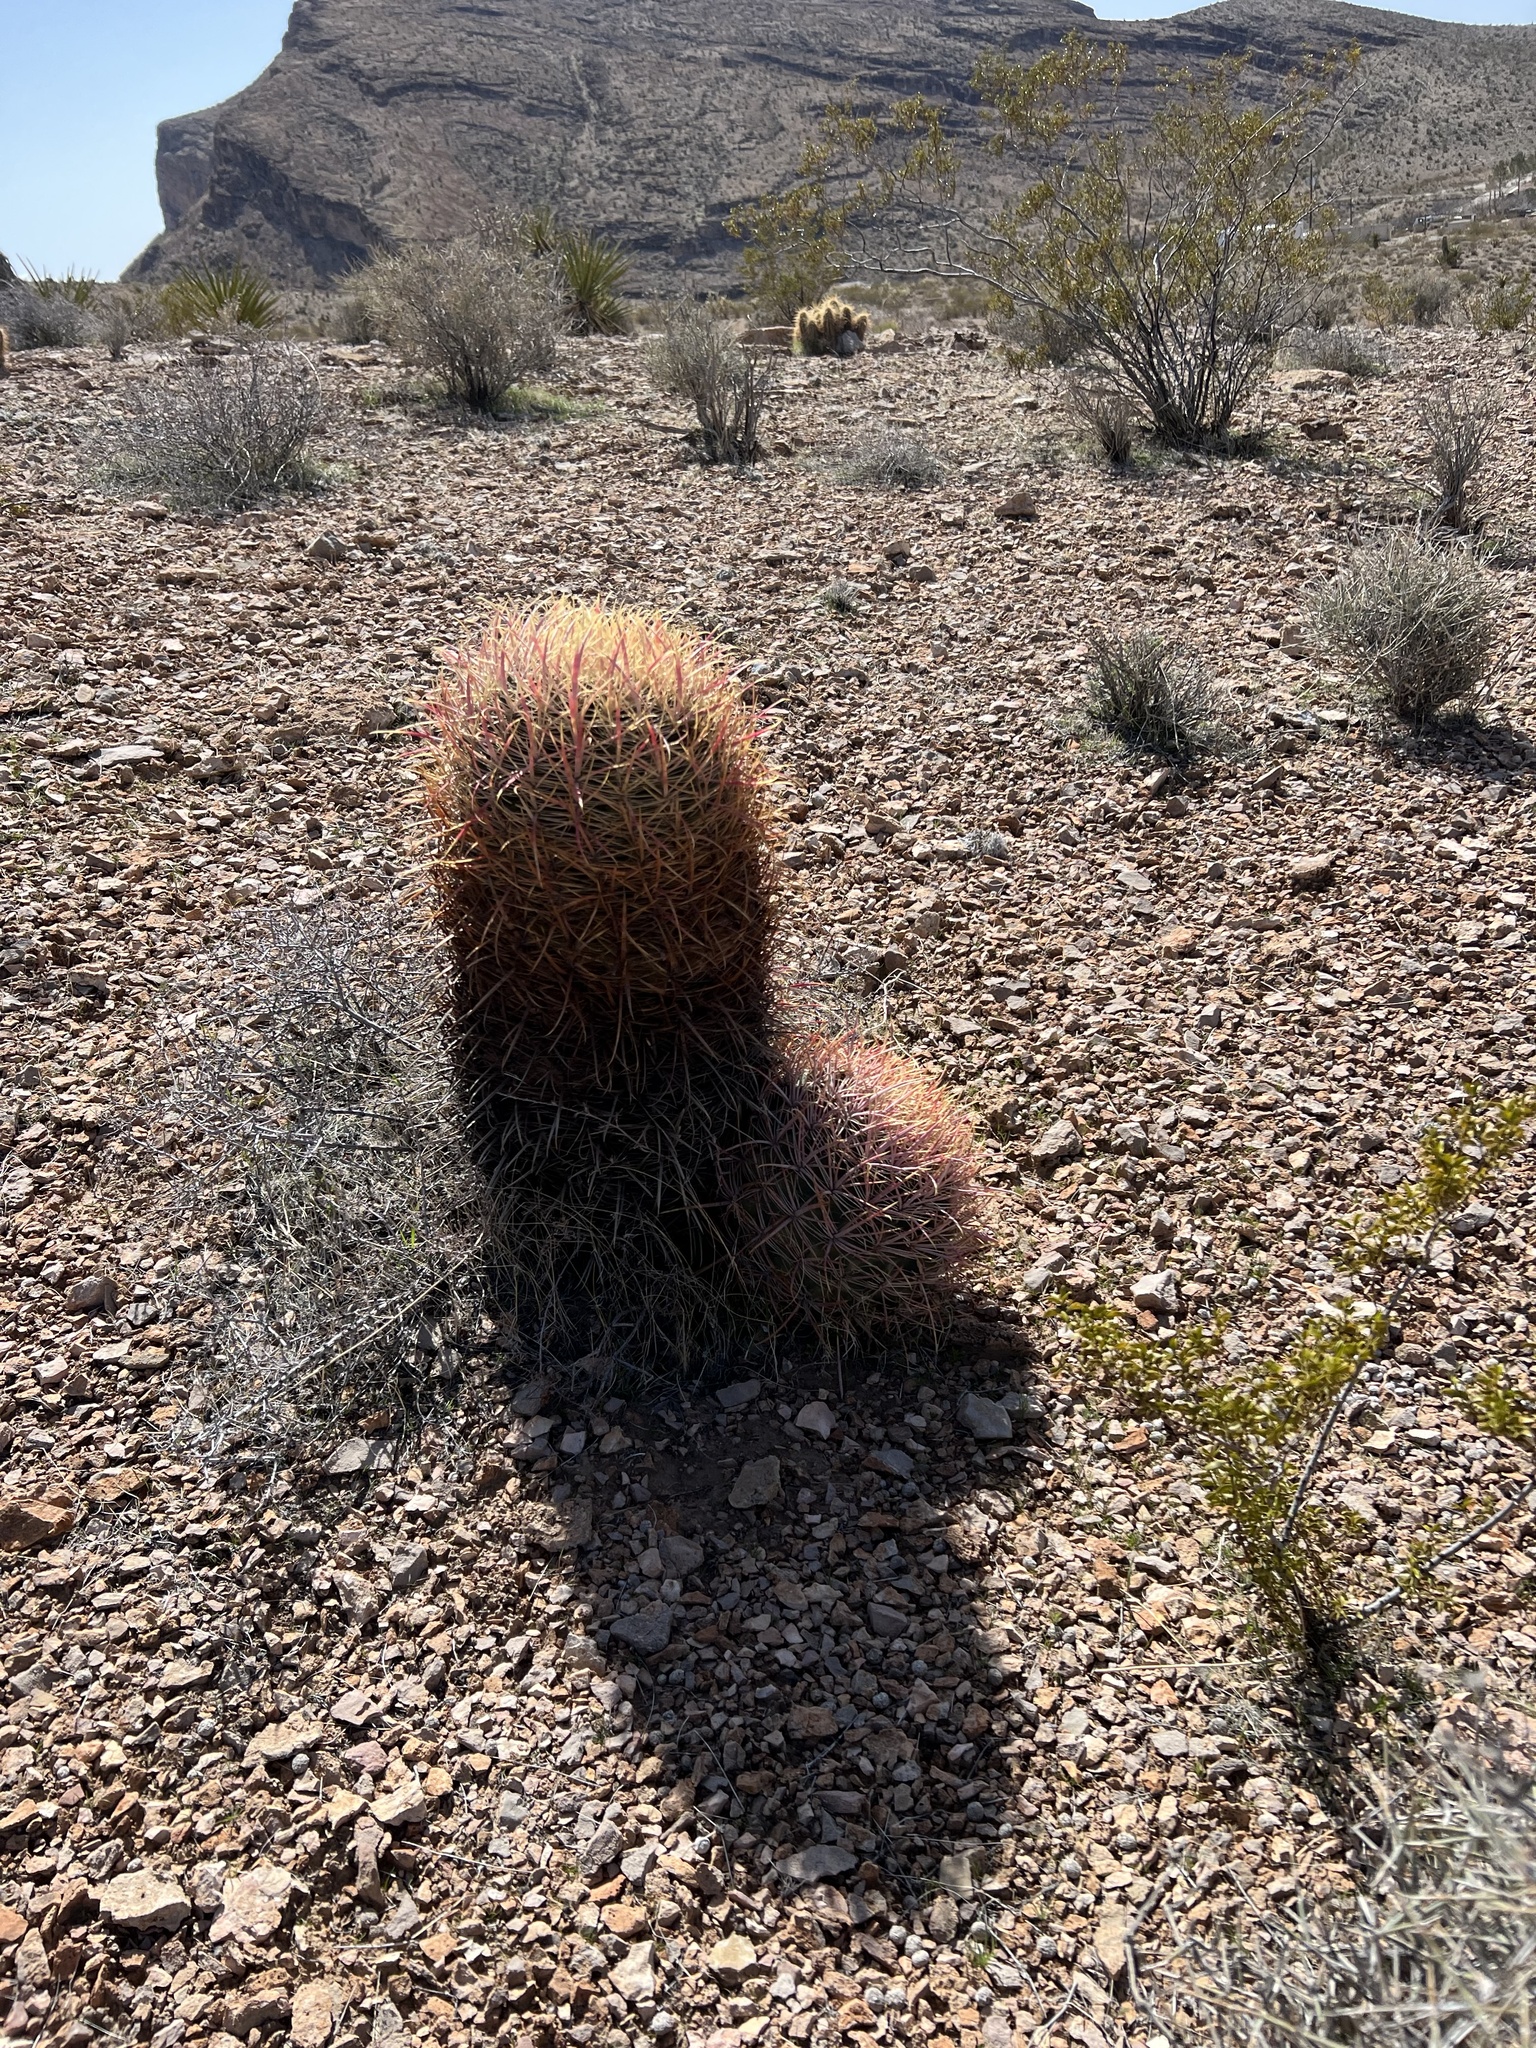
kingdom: Plantae
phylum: Tracheophyta
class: Magnoliopsida
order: Caryophyllales
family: Cactaceae
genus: Ferocactus
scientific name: Ferocactus cylindraceus
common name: California barrel cactus
